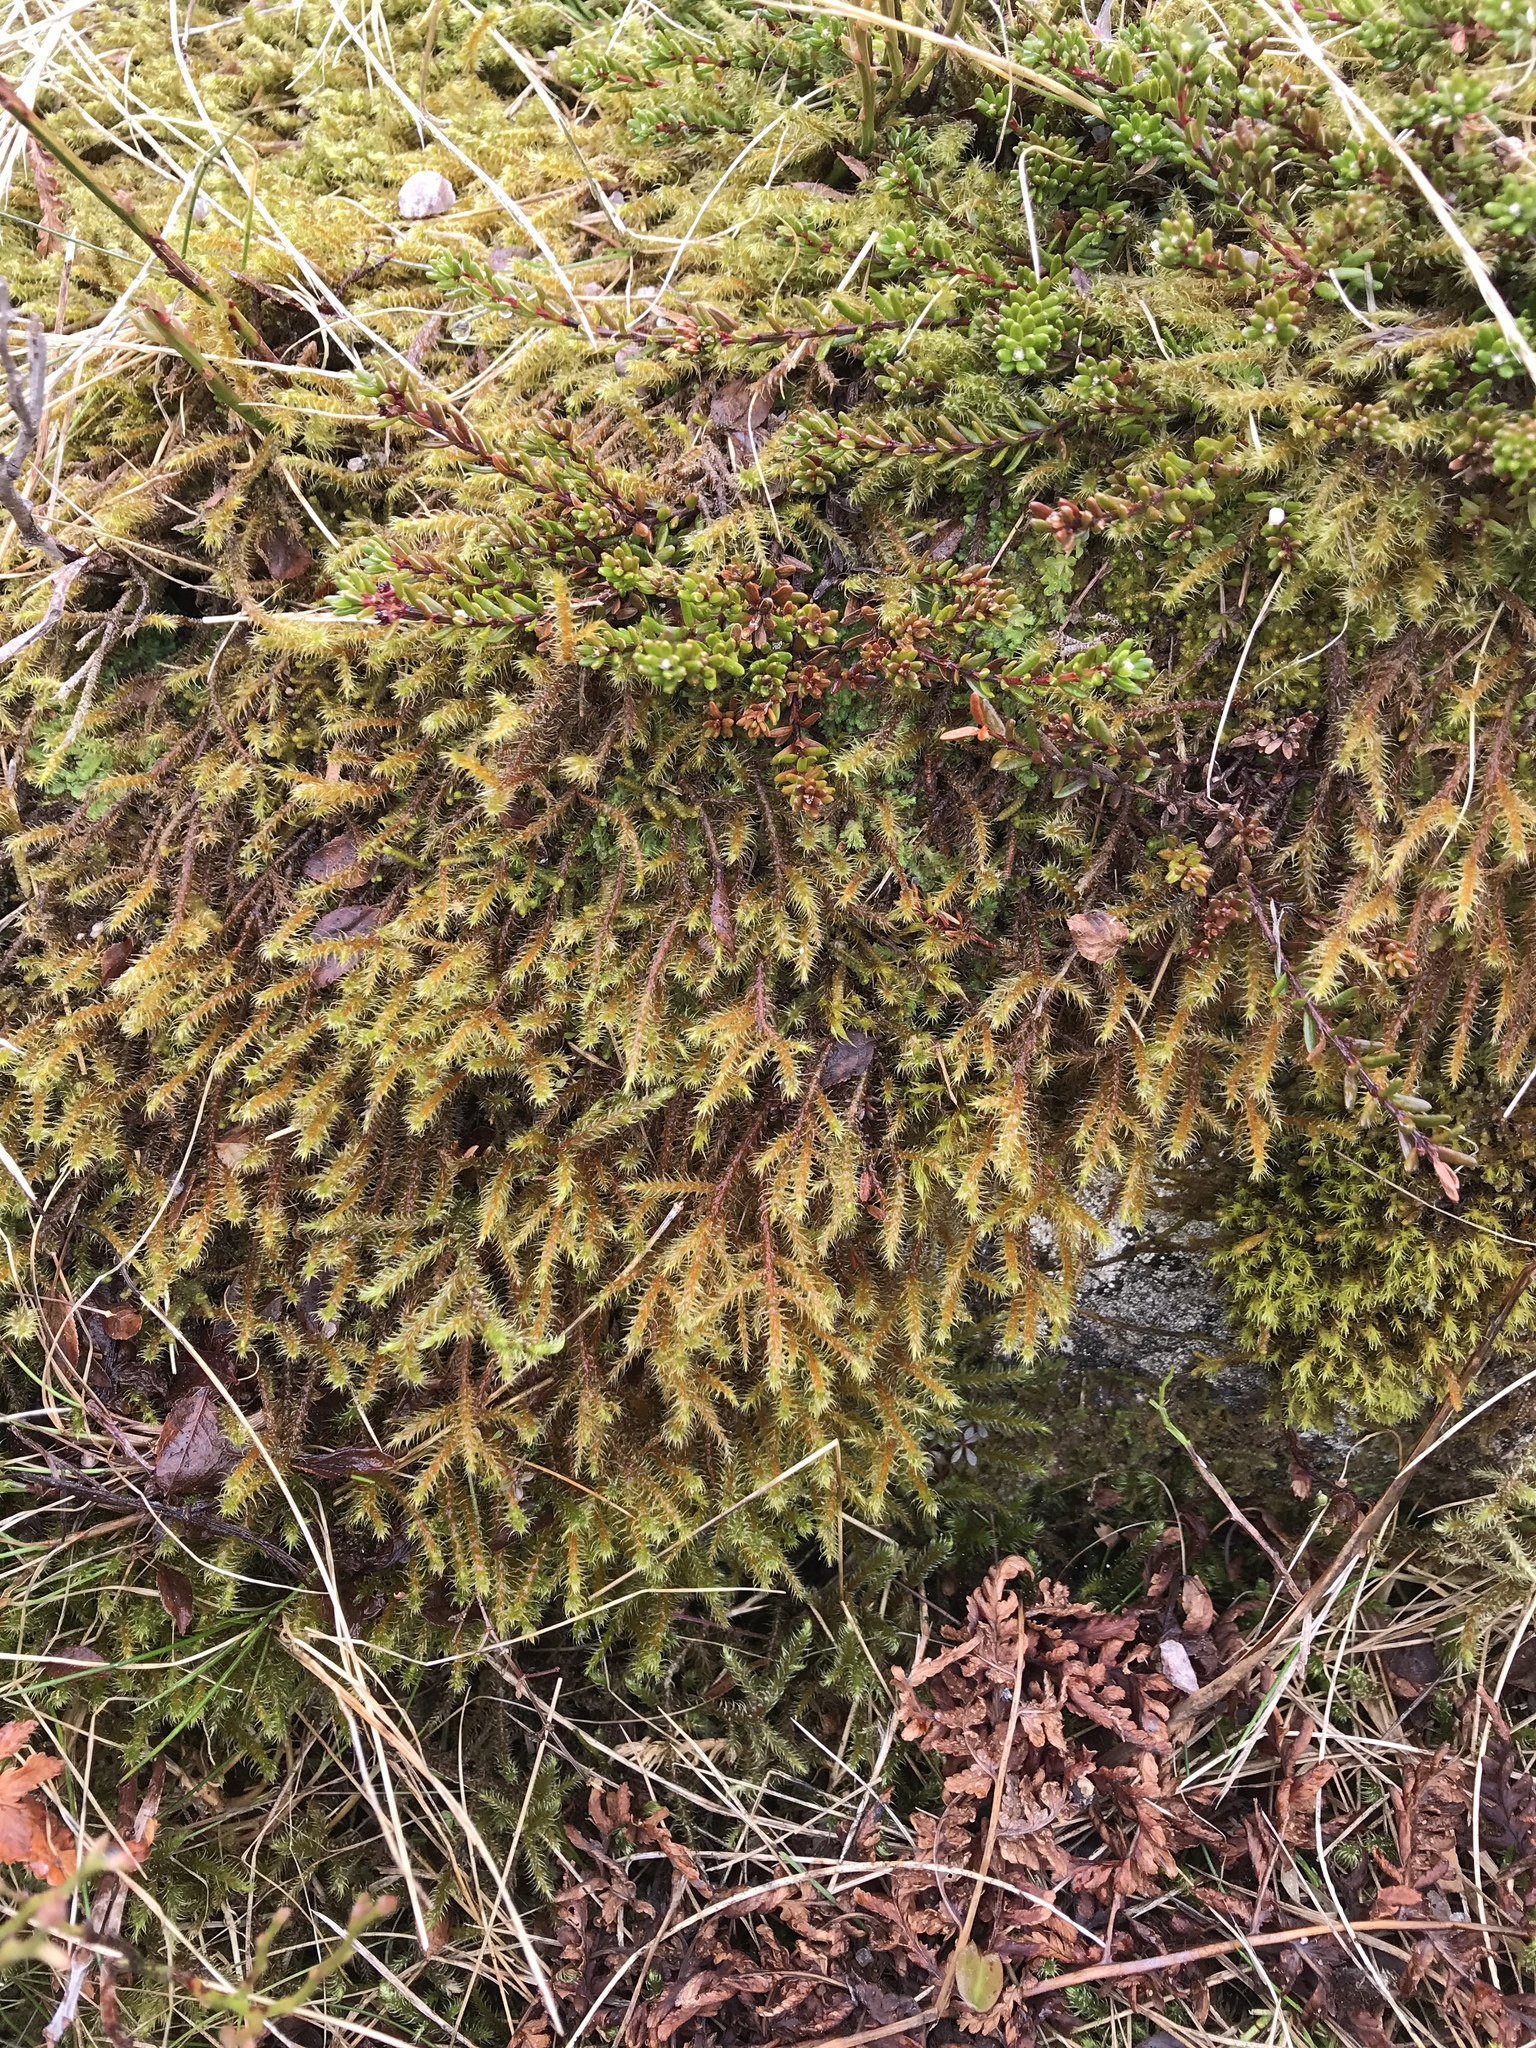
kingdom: Plantae
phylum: Bryophyta
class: Bryopsida
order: Hypnales
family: Hylocomiaceae
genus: Rhytidiadelphus
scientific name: Rhytidiadelphus loreus
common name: Lanky moss
